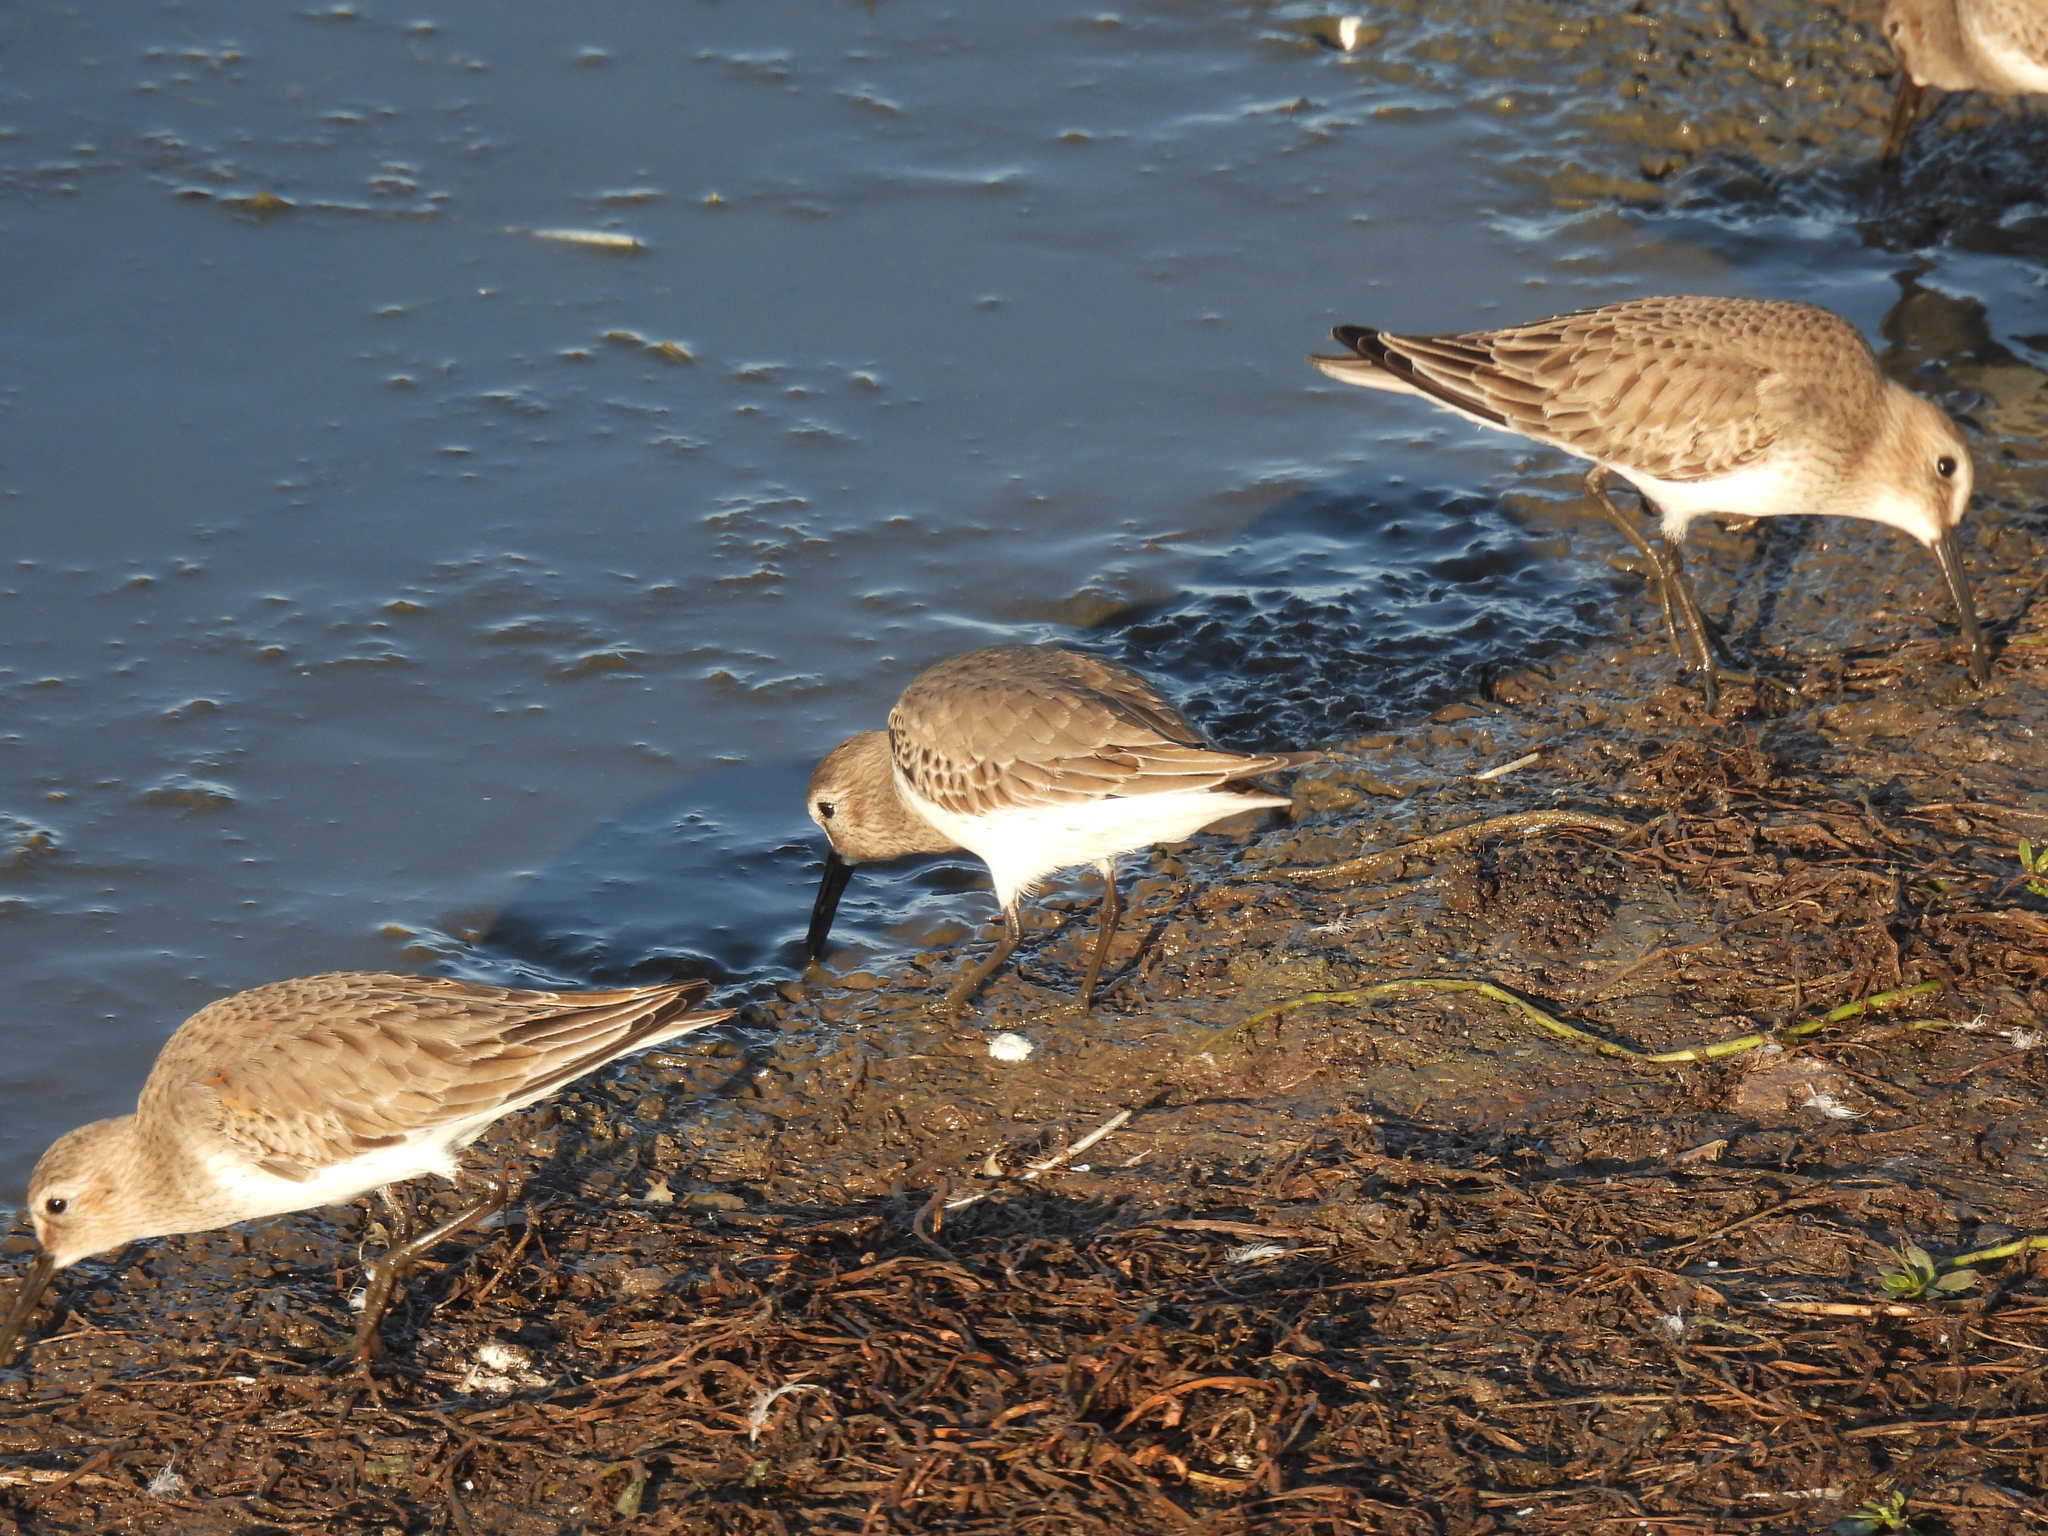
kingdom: Animalia
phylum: Chordata
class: Aves
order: Charadriiformes
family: Scolopacidae
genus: Calidris
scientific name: Calidris alpina
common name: Dunlin
